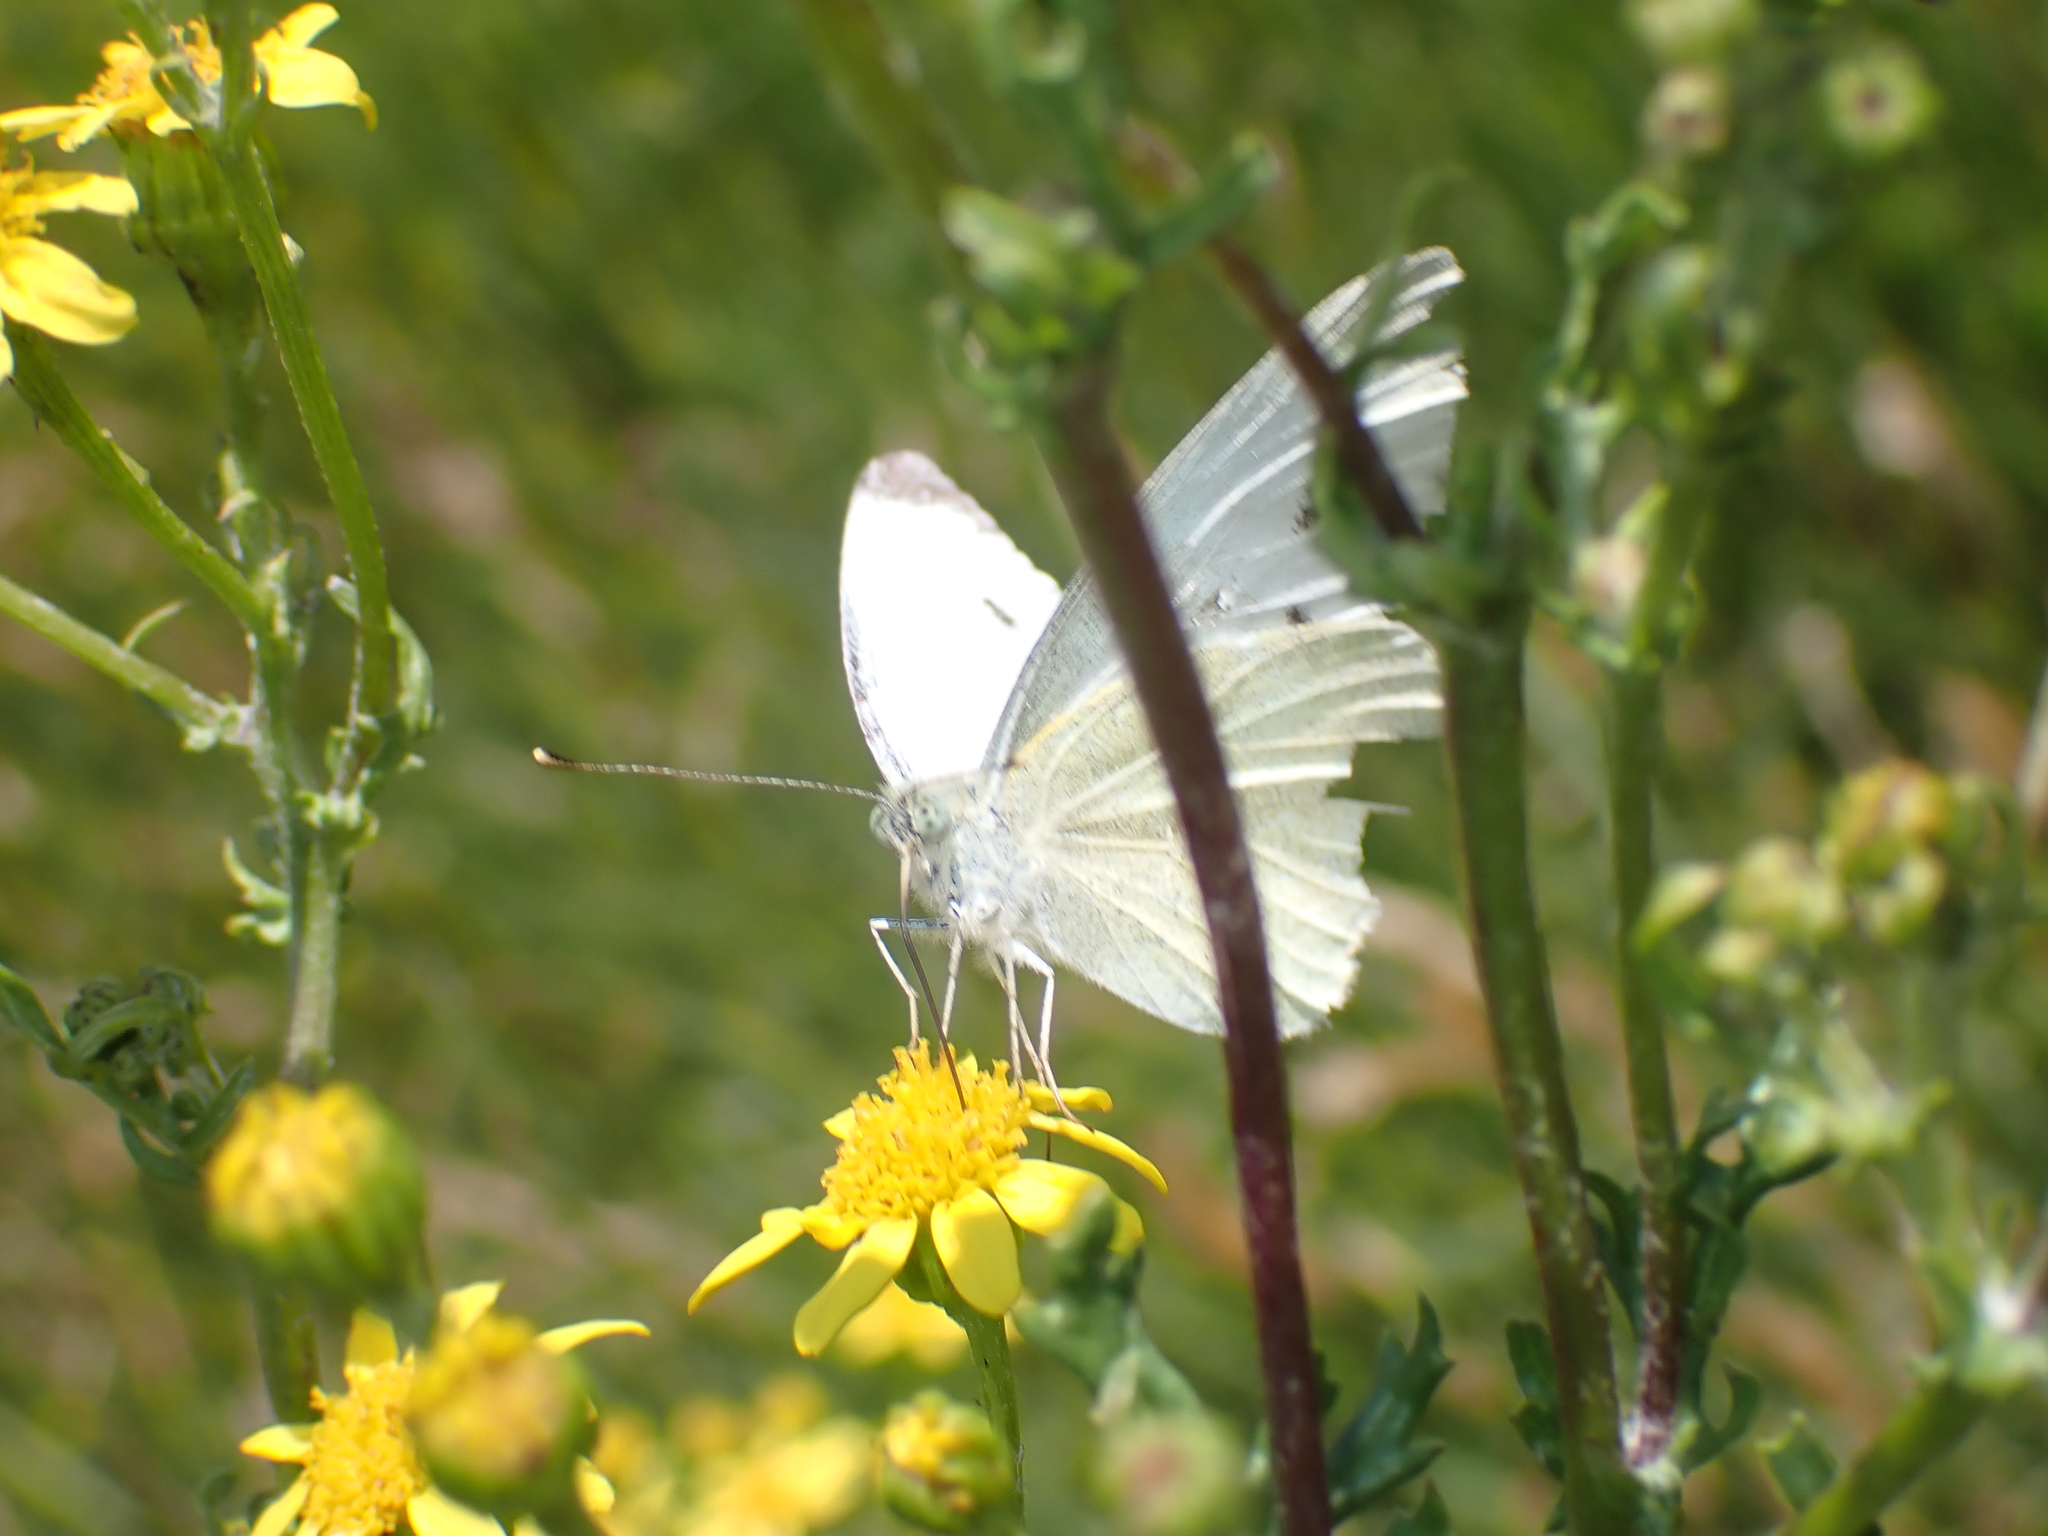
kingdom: Animalia
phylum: Arthropoda
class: Insecta
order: Lepidoptera
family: Pieridae
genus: Pieris
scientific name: Pieris rapae
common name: Small white
